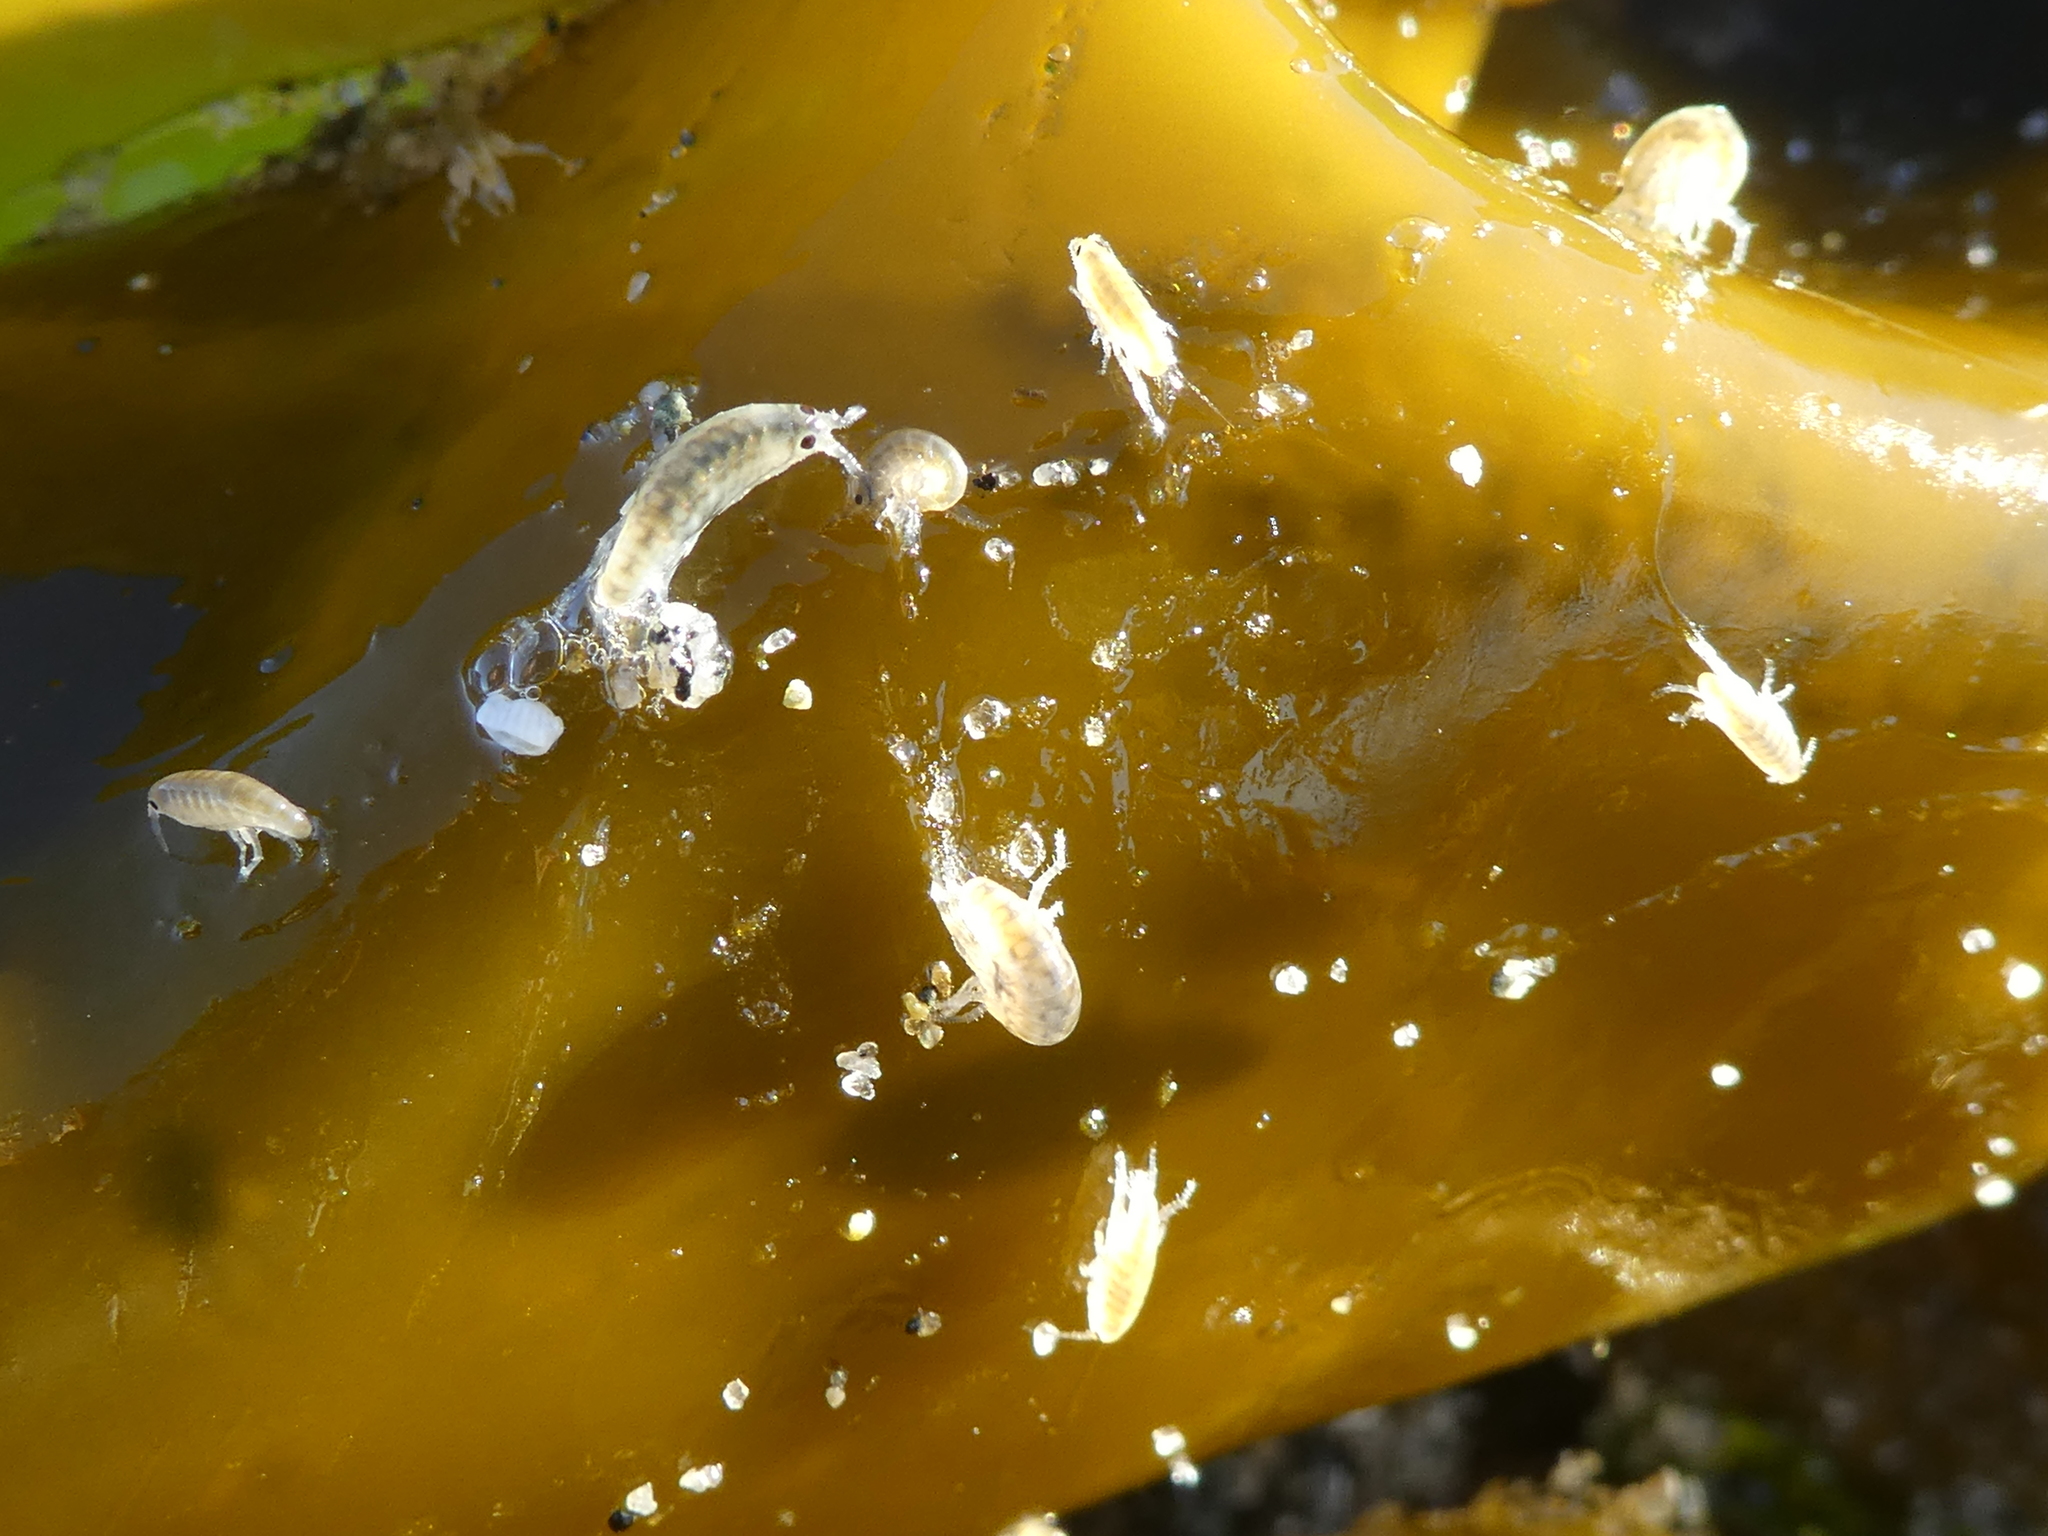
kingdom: Animalia
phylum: Arthropoda
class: Malacostraca
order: Amphipoda
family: Talitridae
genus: Megalorchestia
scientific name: Megalorchestia pugettensis
